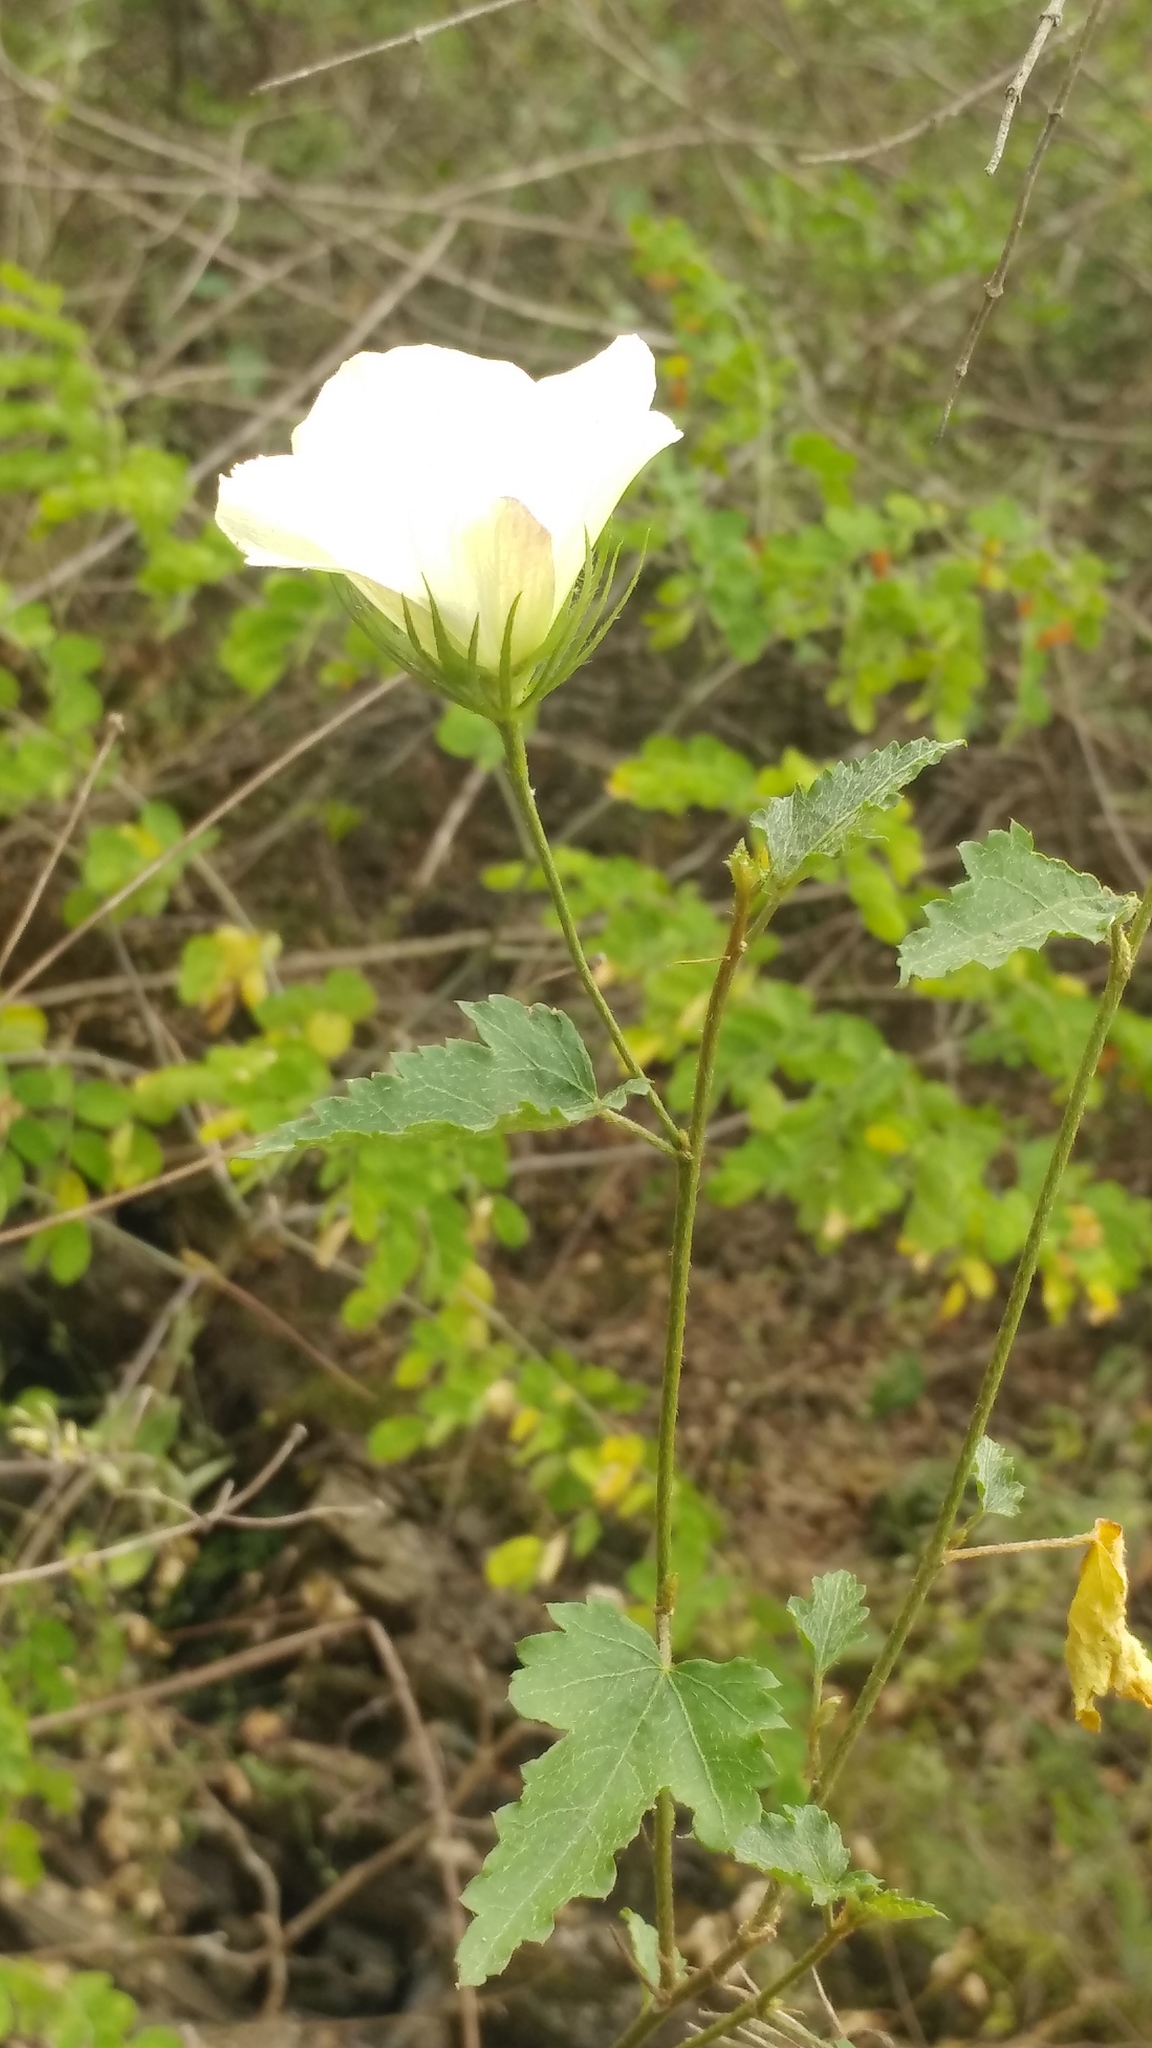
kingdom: Plantae
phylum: Tracheophyta
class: Magnoliopsida
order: Malvales
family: Malvaceae
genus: Hibiscus
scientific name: Hibiscus acicularis
